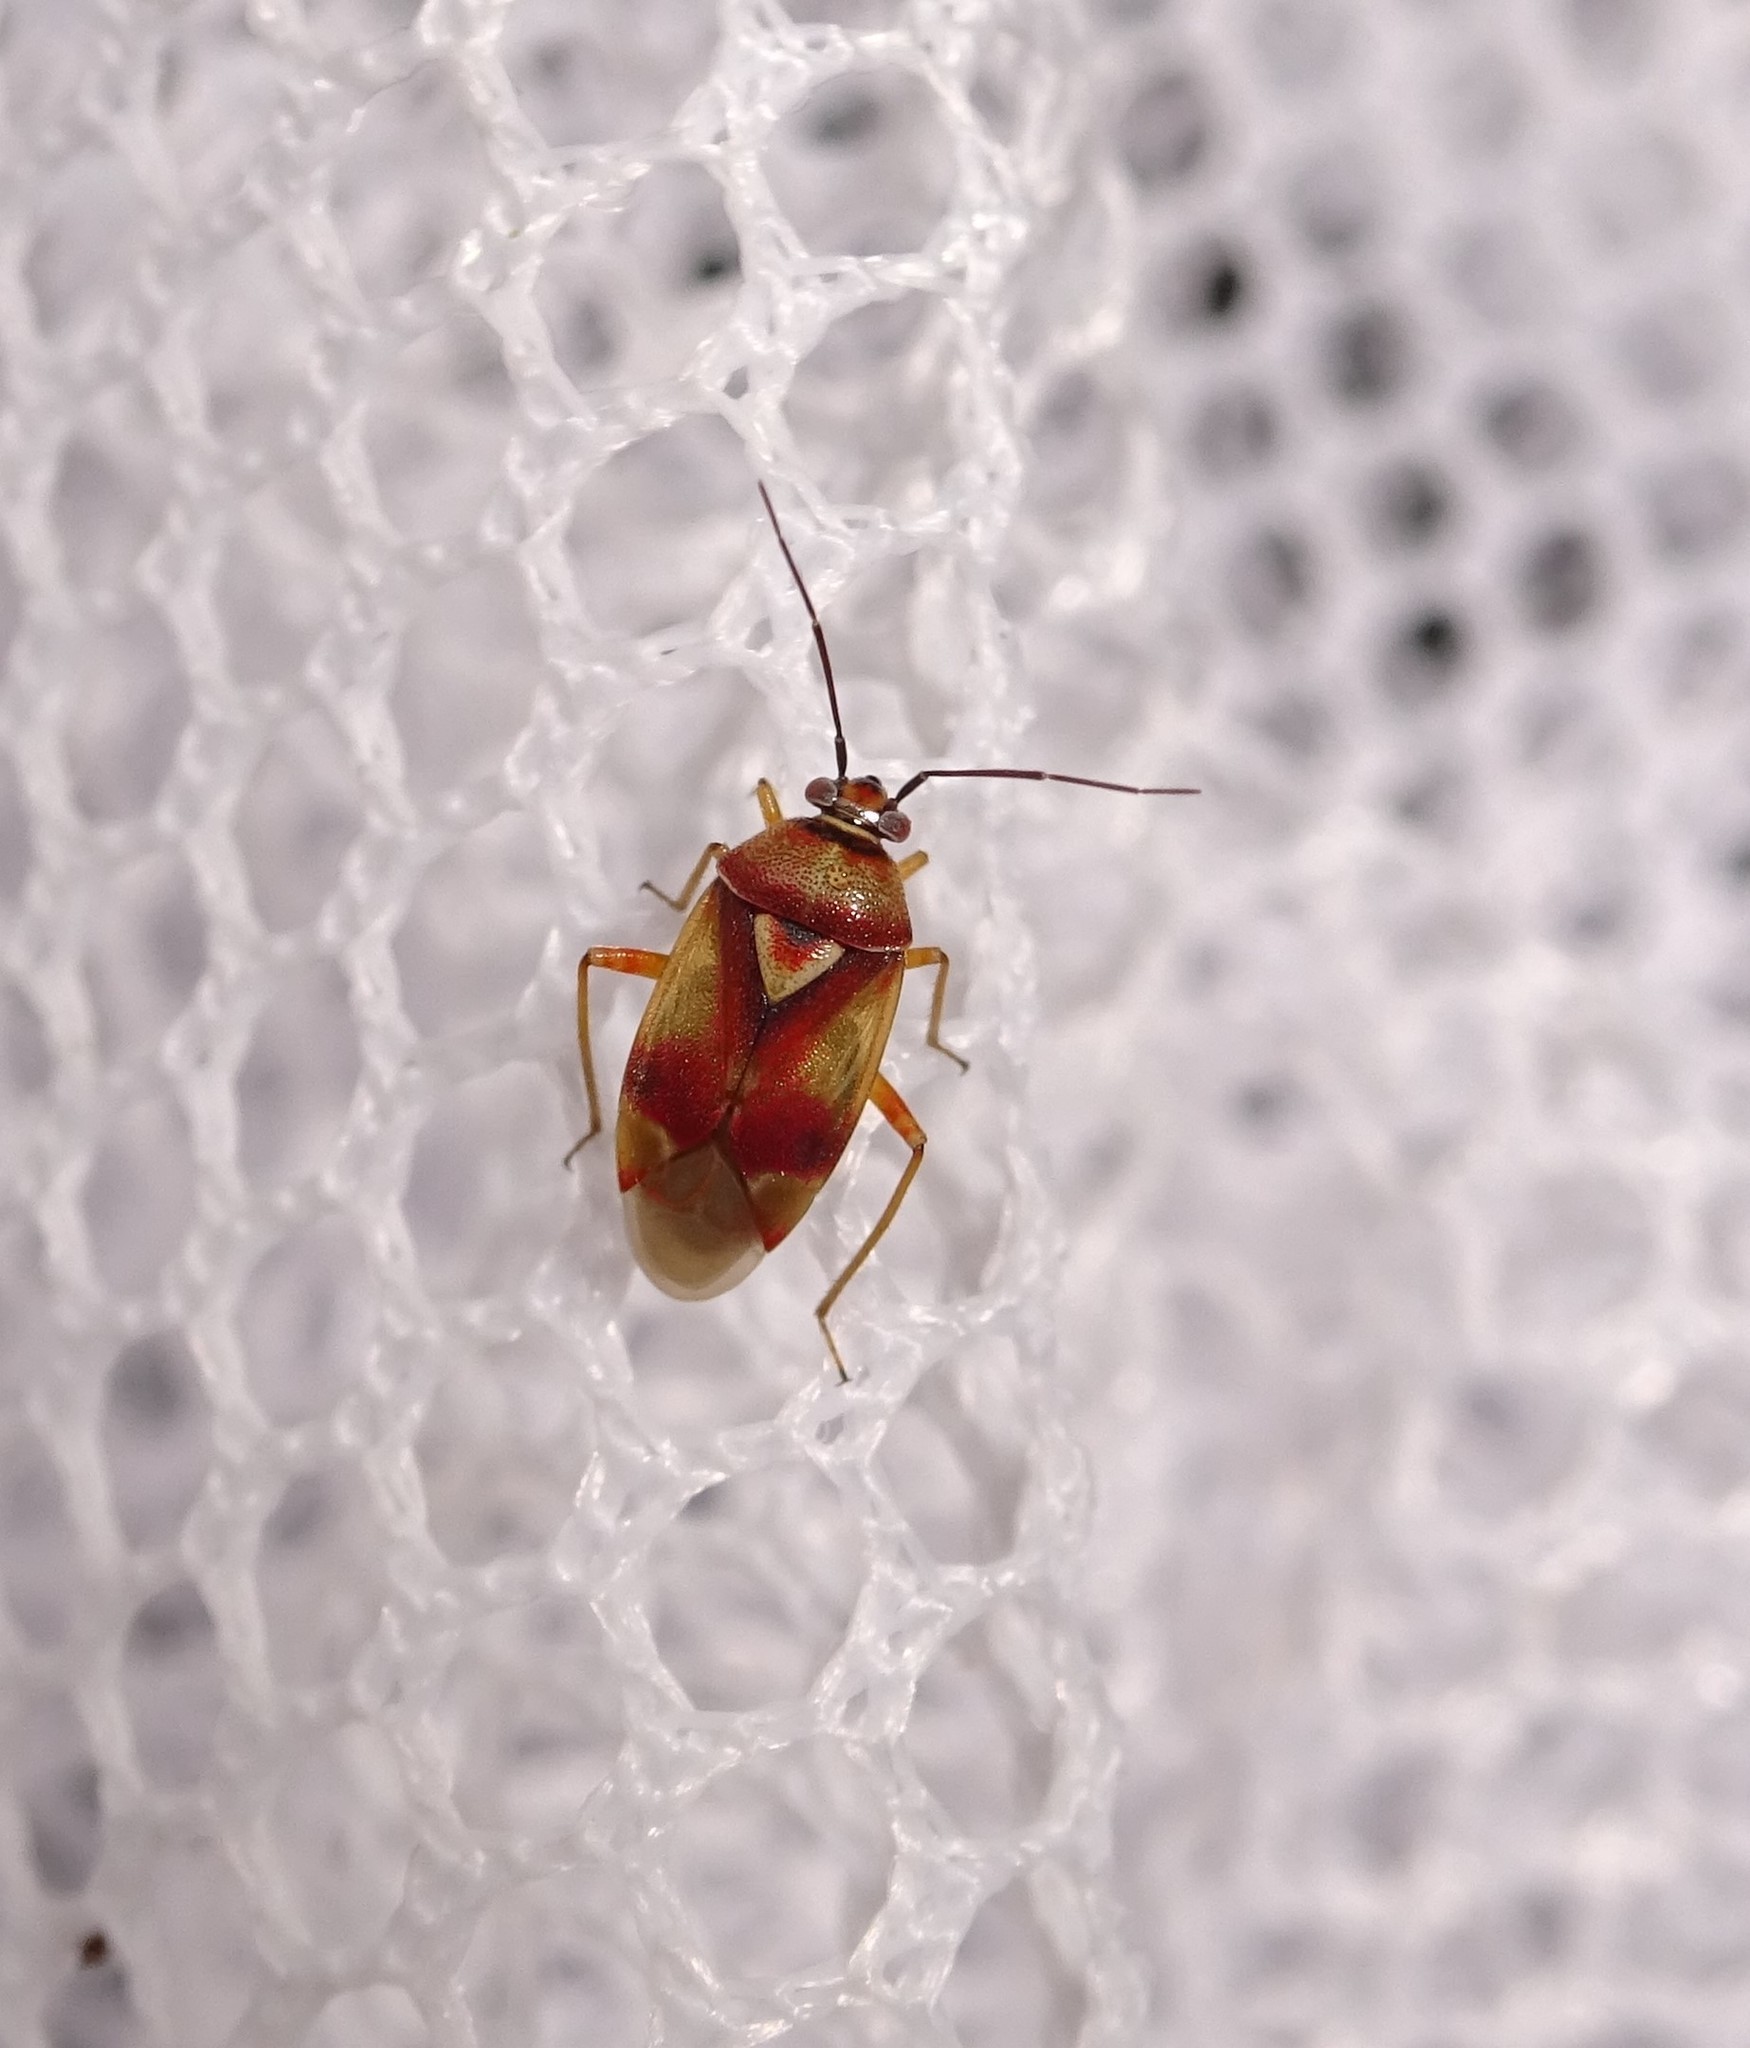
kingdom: Animalia
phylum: Arthropoda
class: Insecta
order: Hemiptera
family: Miridae
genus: Orthops
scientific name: Orthops montanus
